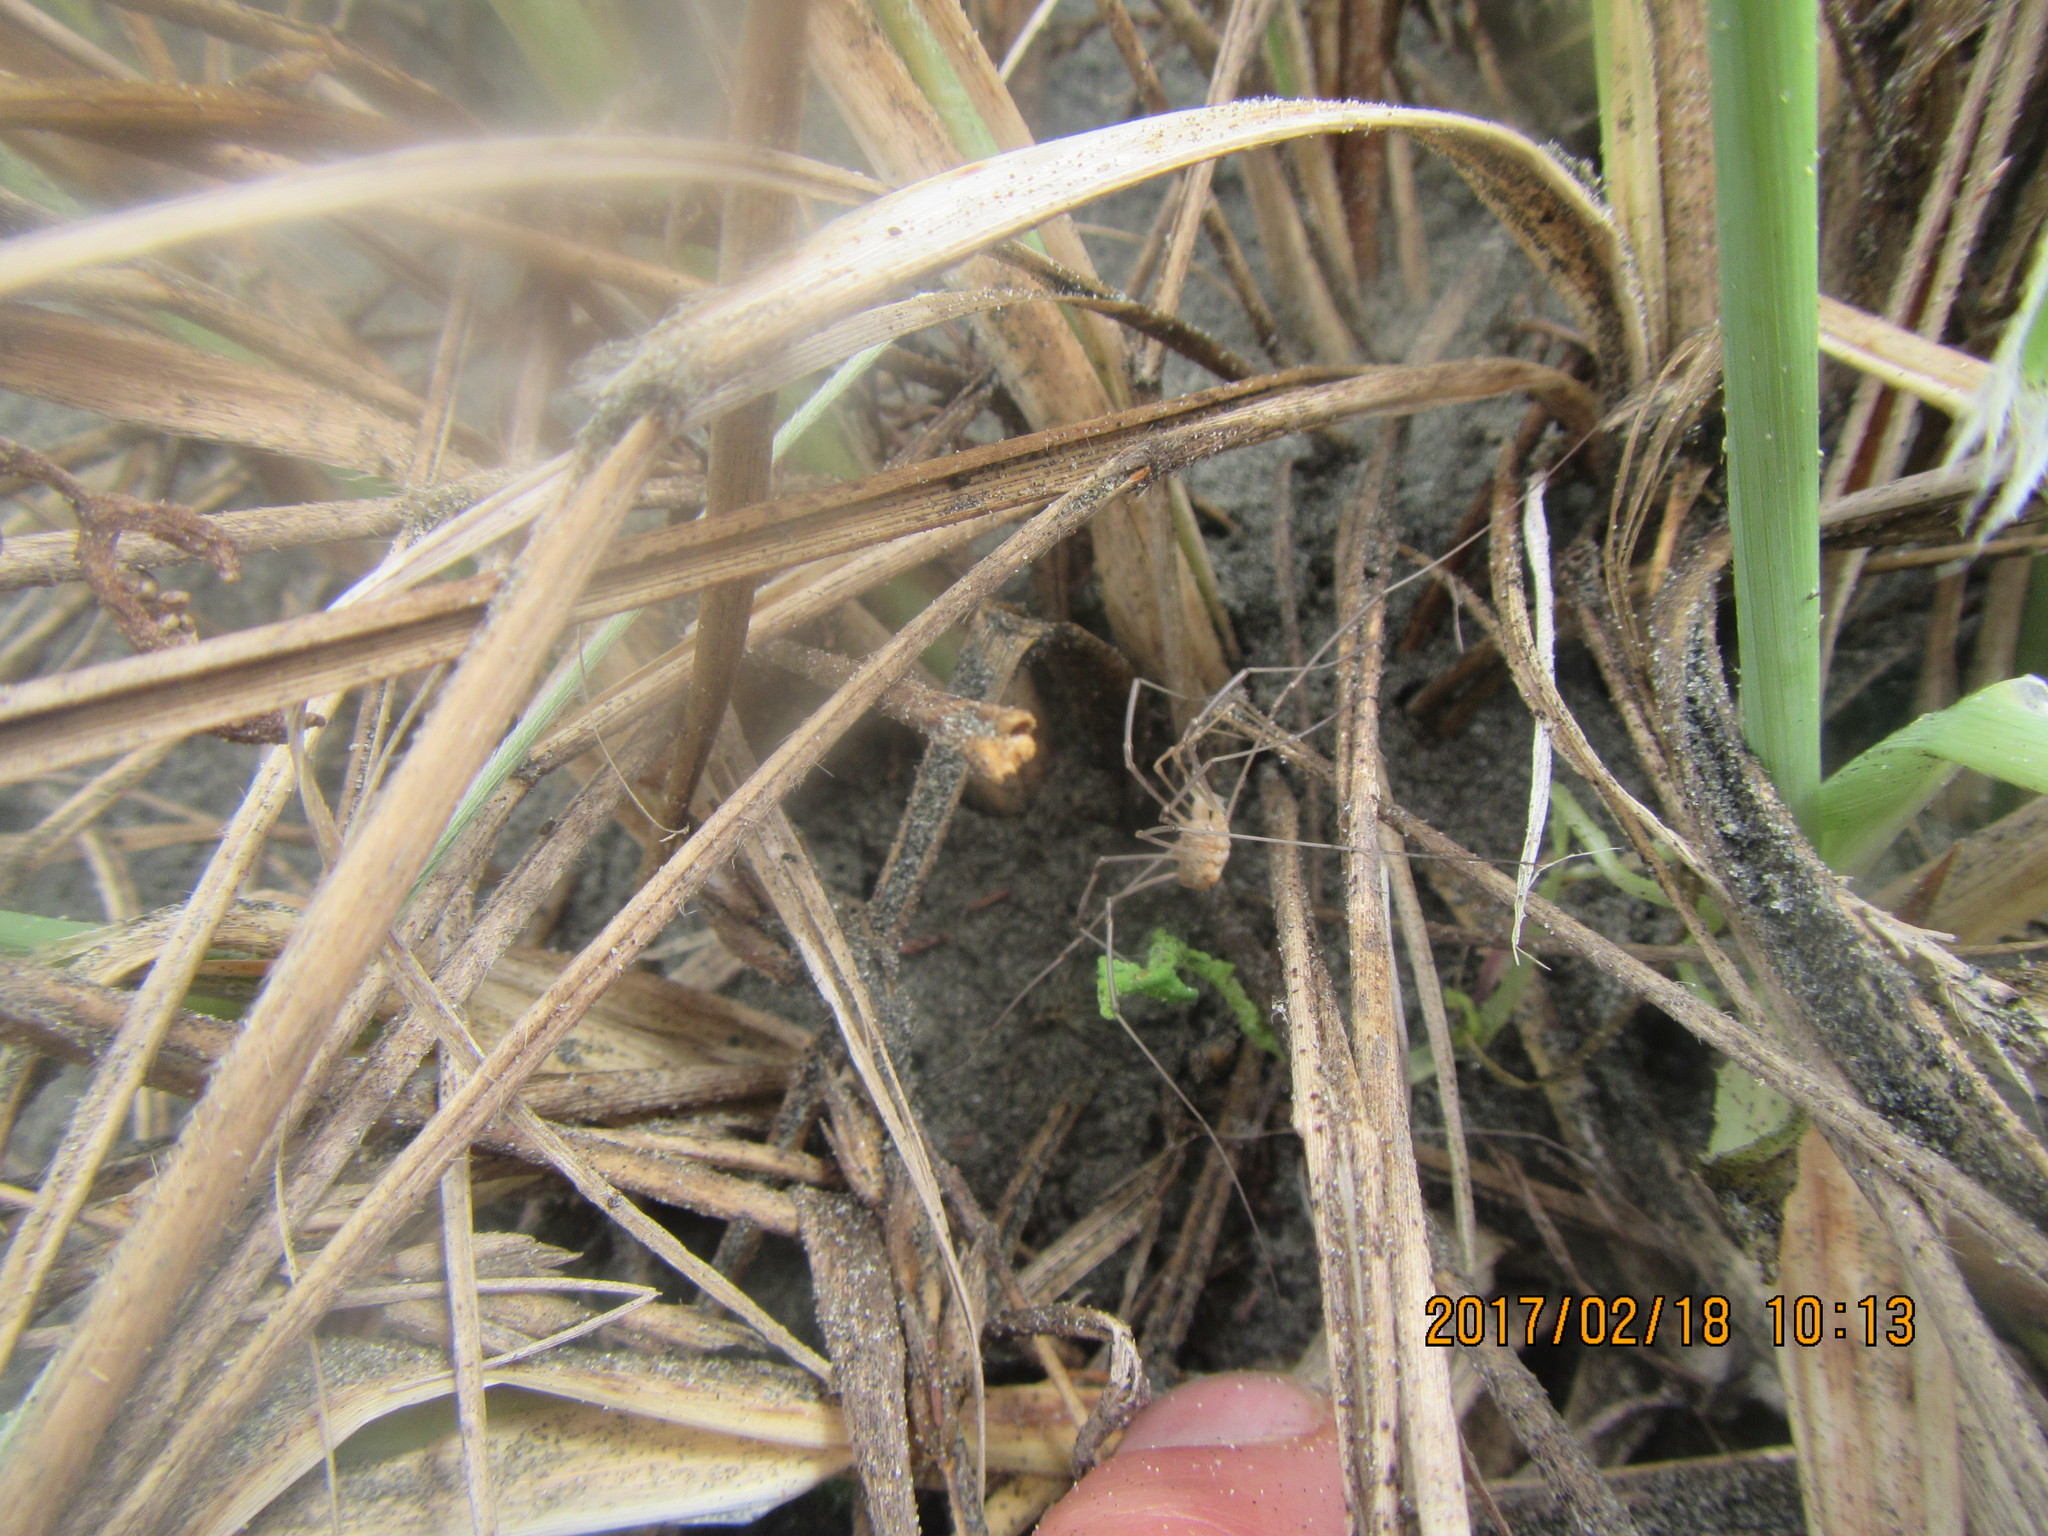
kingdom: Animalia
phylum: Arthropoda
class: Arachnida
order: Opiliones
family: Phalangiidae
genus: Phalangium
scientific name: Phalangium opilio
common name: Daddy longleg
